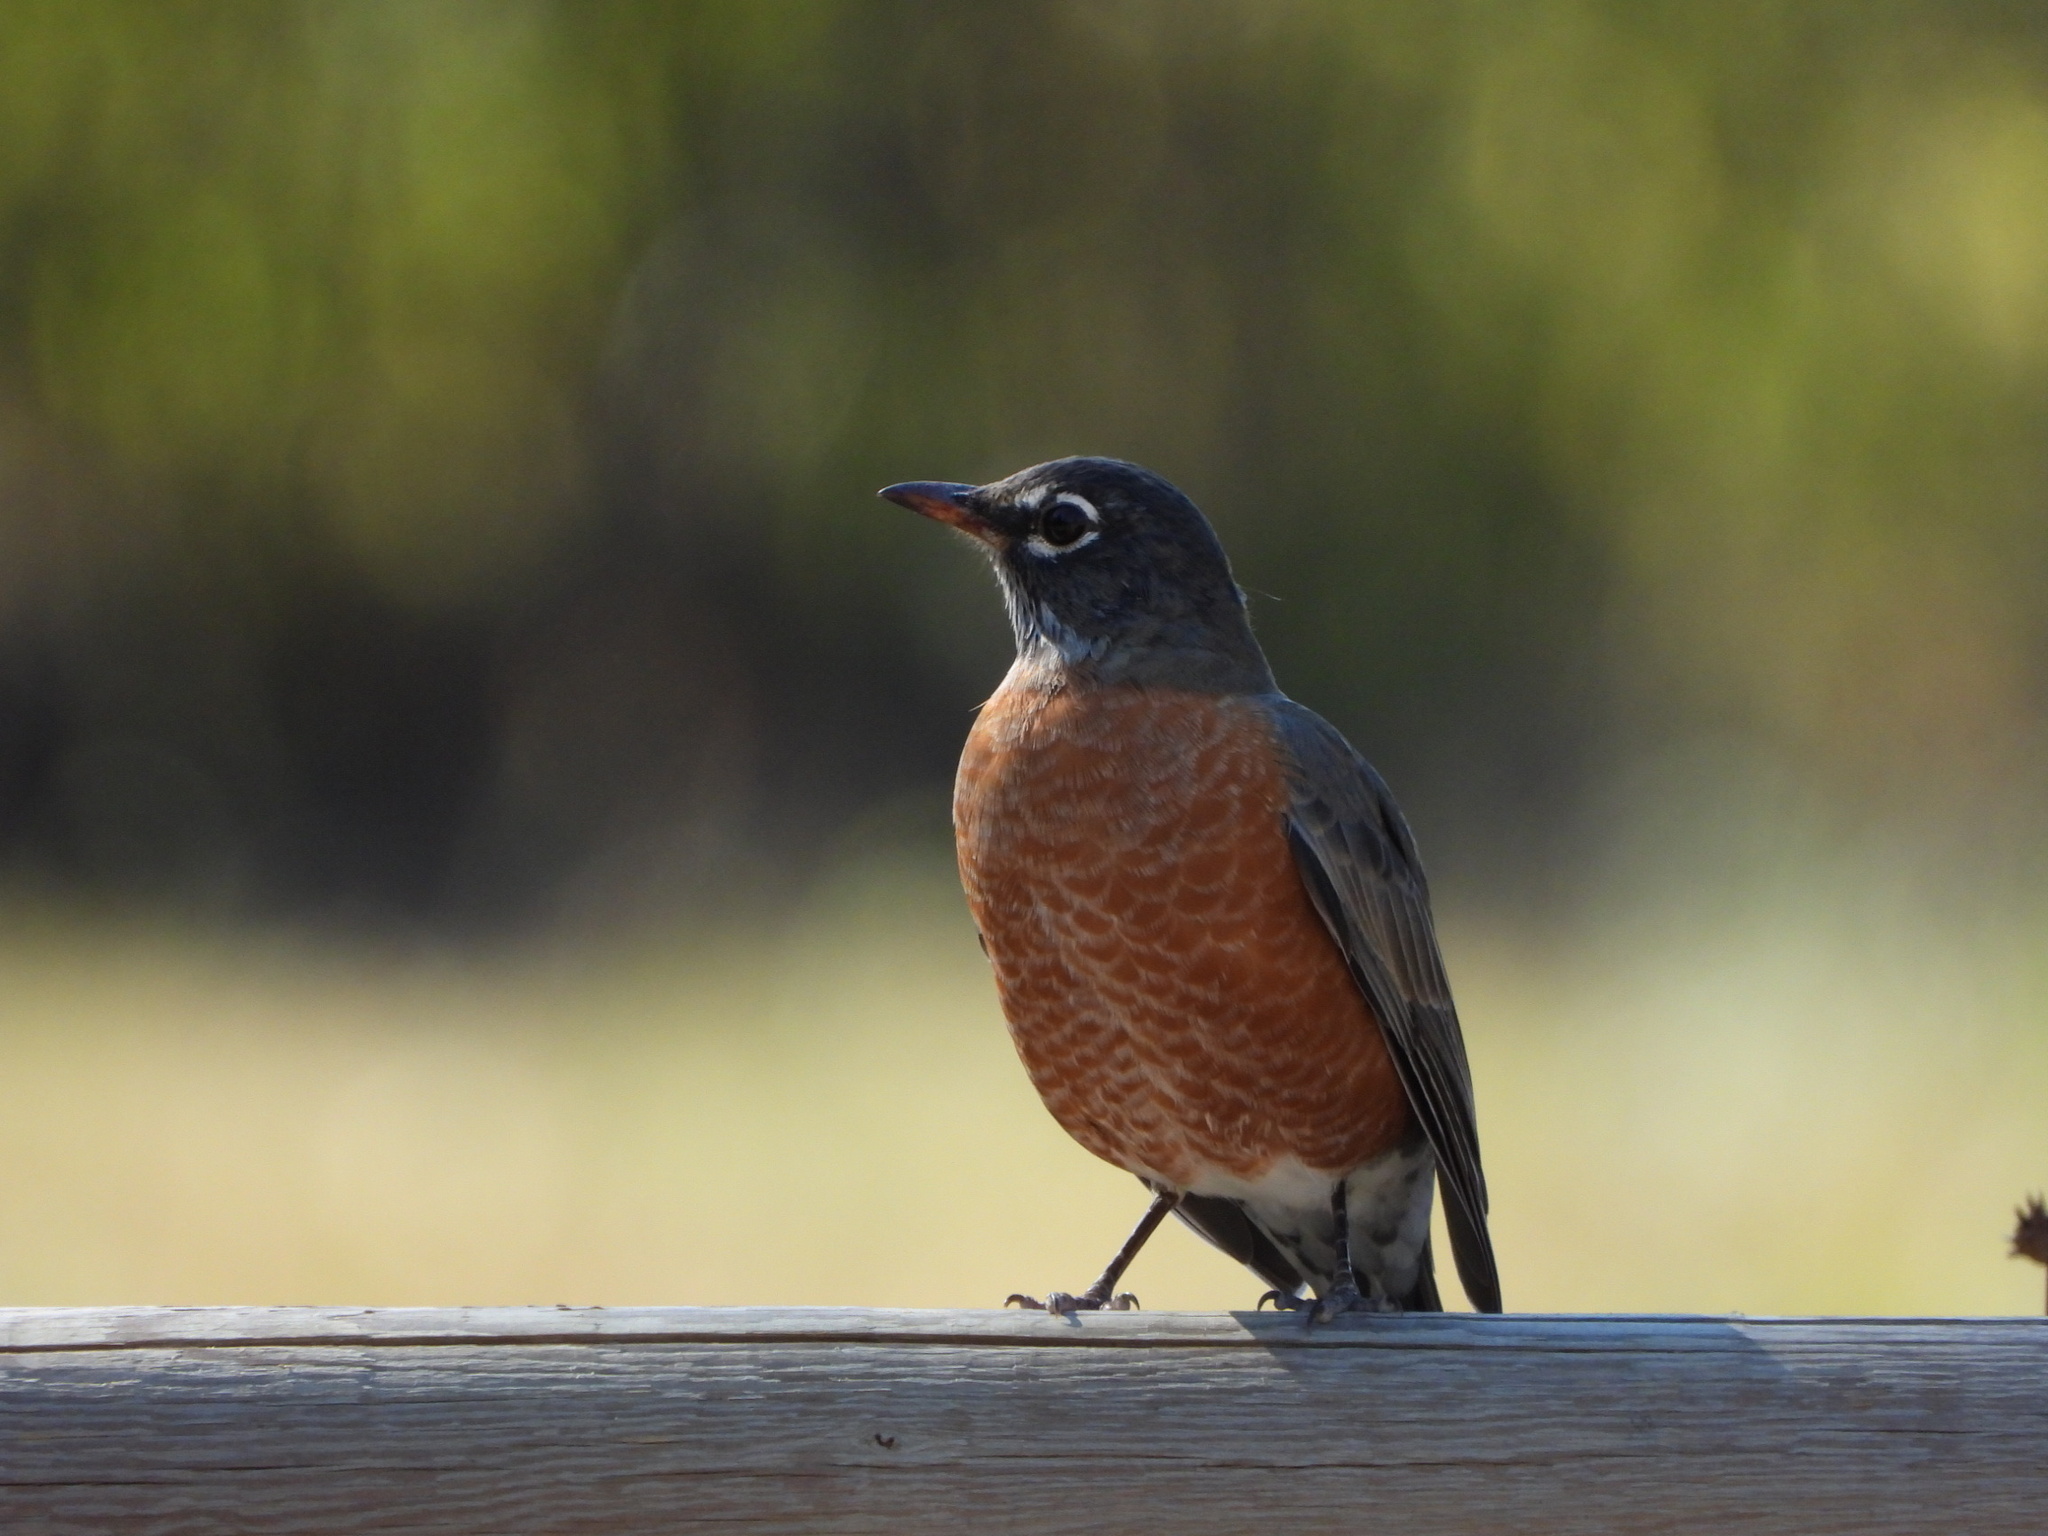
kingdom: Animalia
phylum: Chordata
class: Aves
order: Passeriformes
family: Turdidae
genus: Turdus
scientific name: Turdus migratorius
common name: American robin
